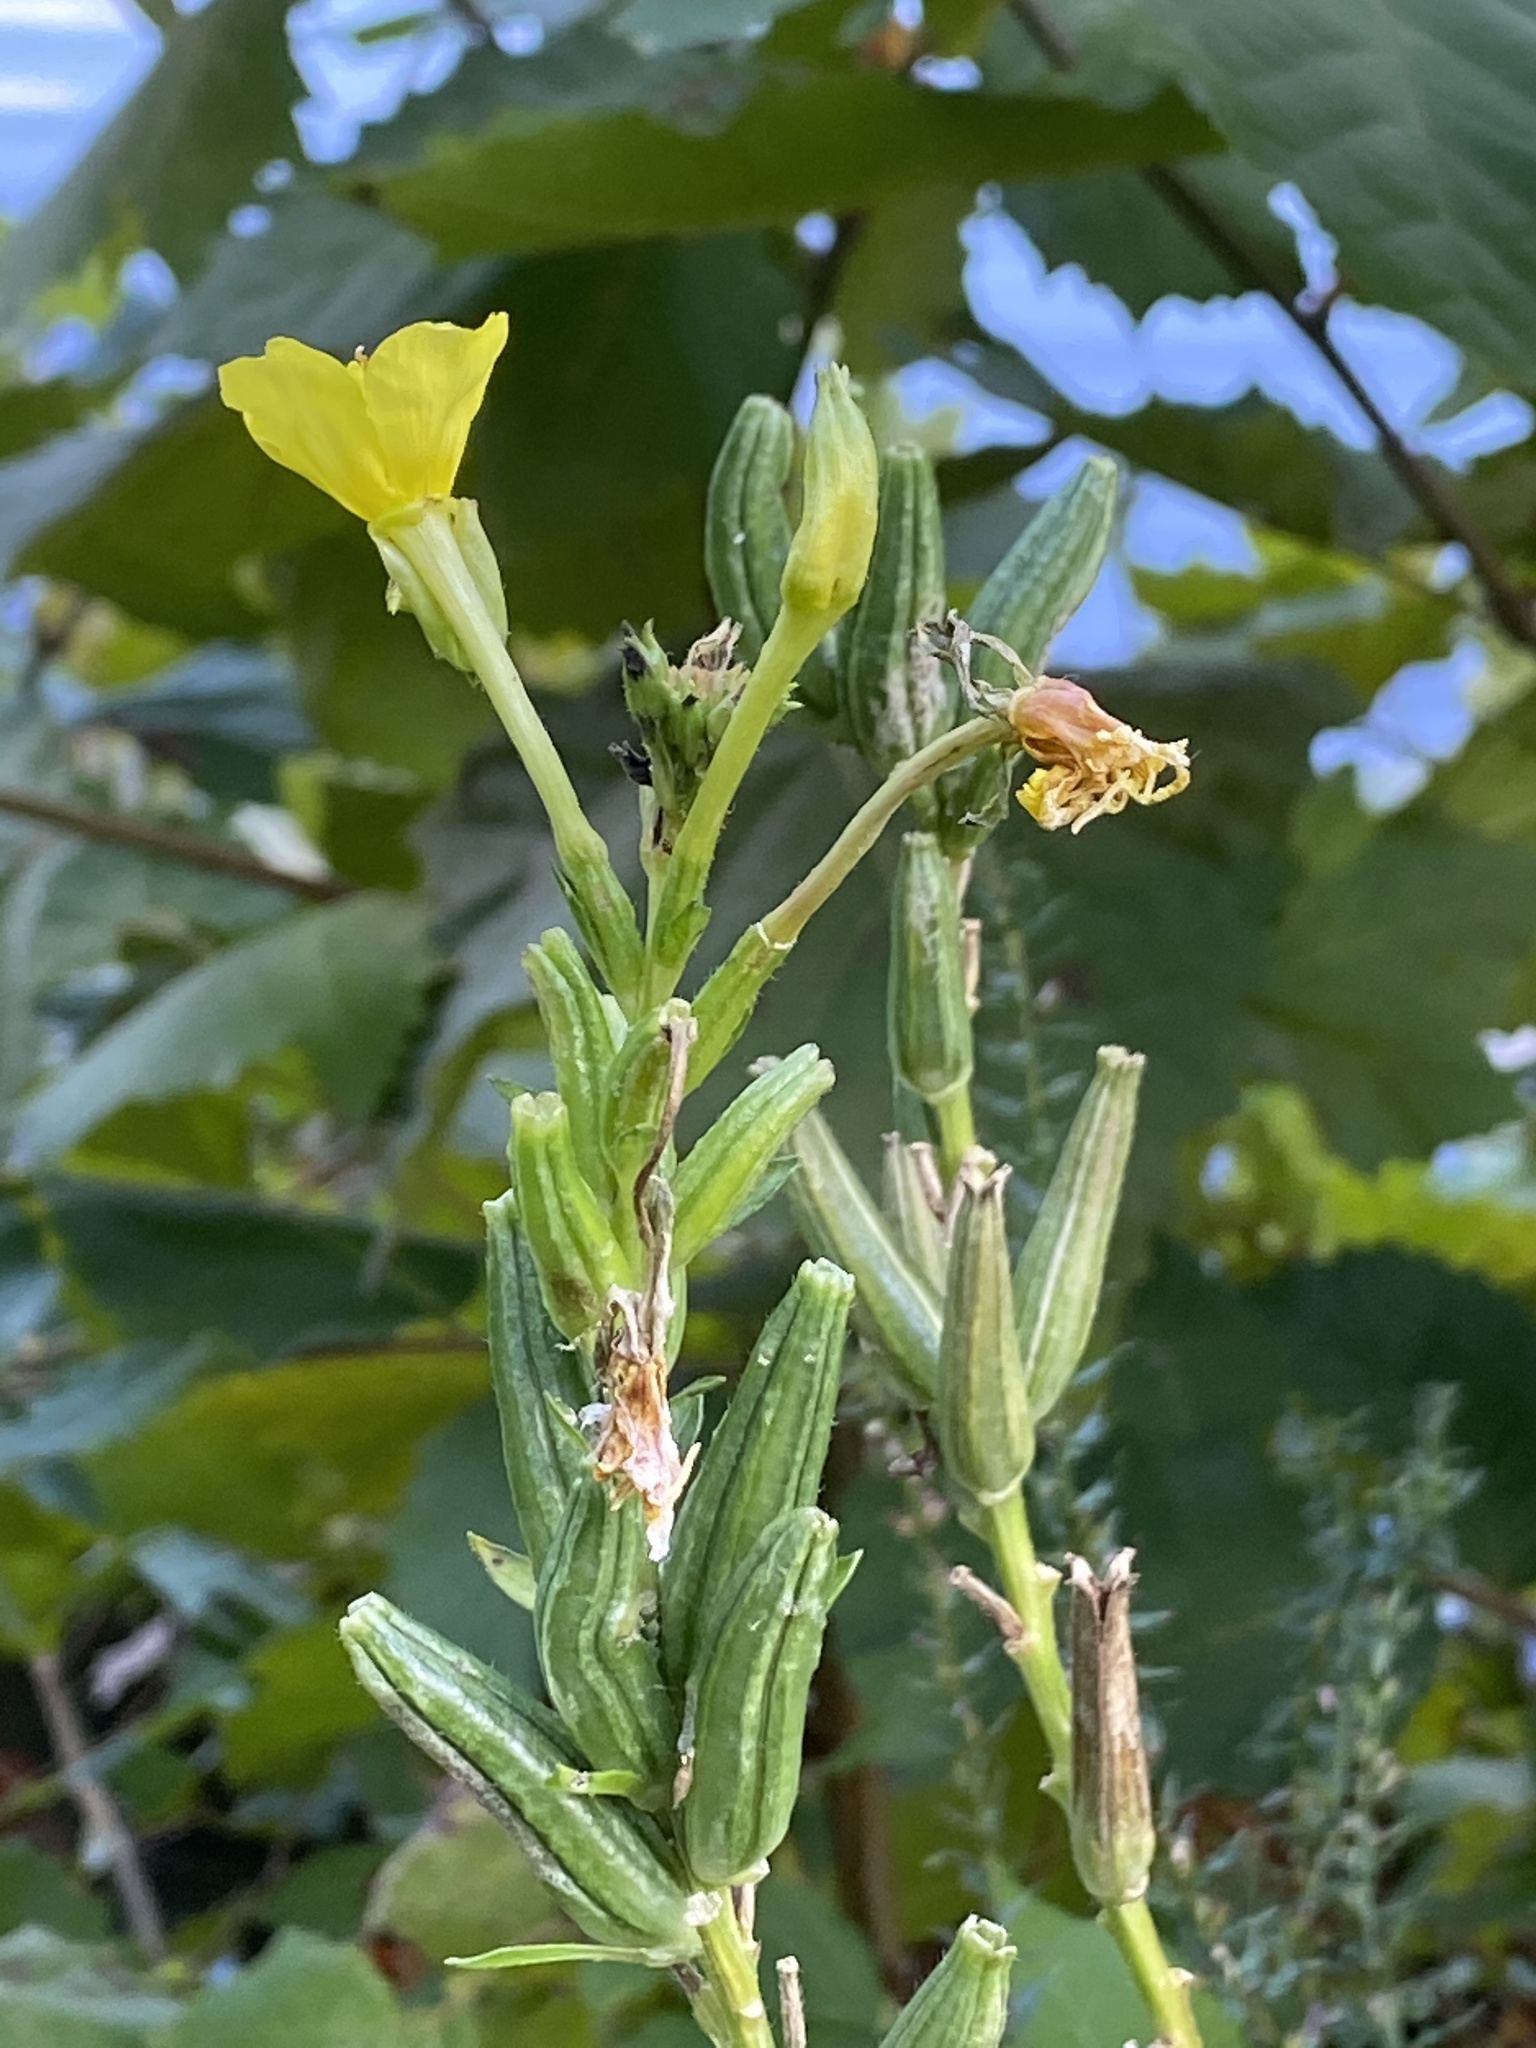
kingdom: Plantae
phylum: Tracheophyta
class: Magnoliopsida
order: Myrtales
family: Onagraceae
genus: Oenothera
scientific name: Oenothera biennis
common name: Common evening-primrose
